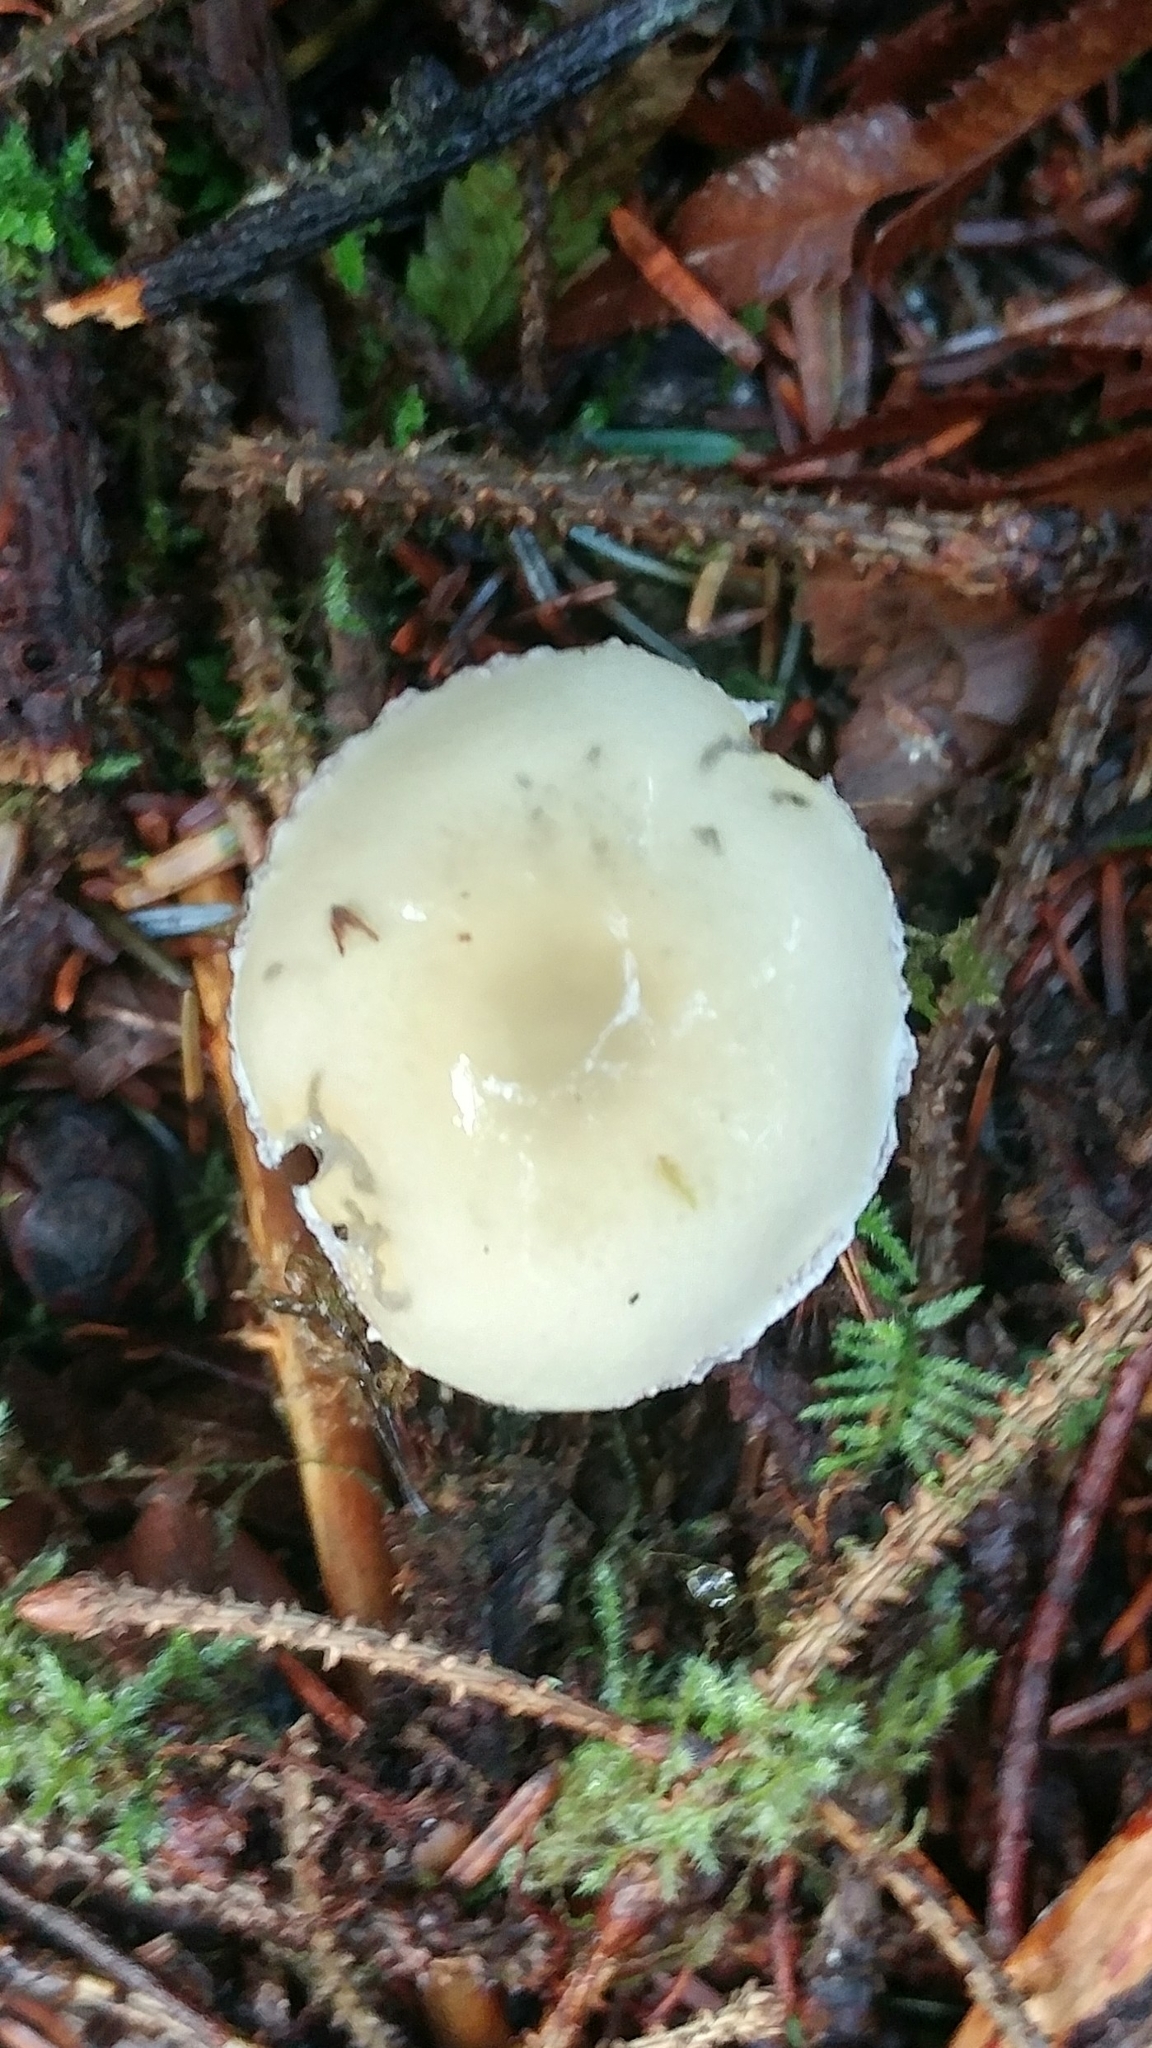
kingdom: Fungi
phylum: Basidiomycota
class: Agaricomycetes
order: Agaricales
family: Strophariaceae
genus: Stropharia
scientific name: Stropharia ambigua
